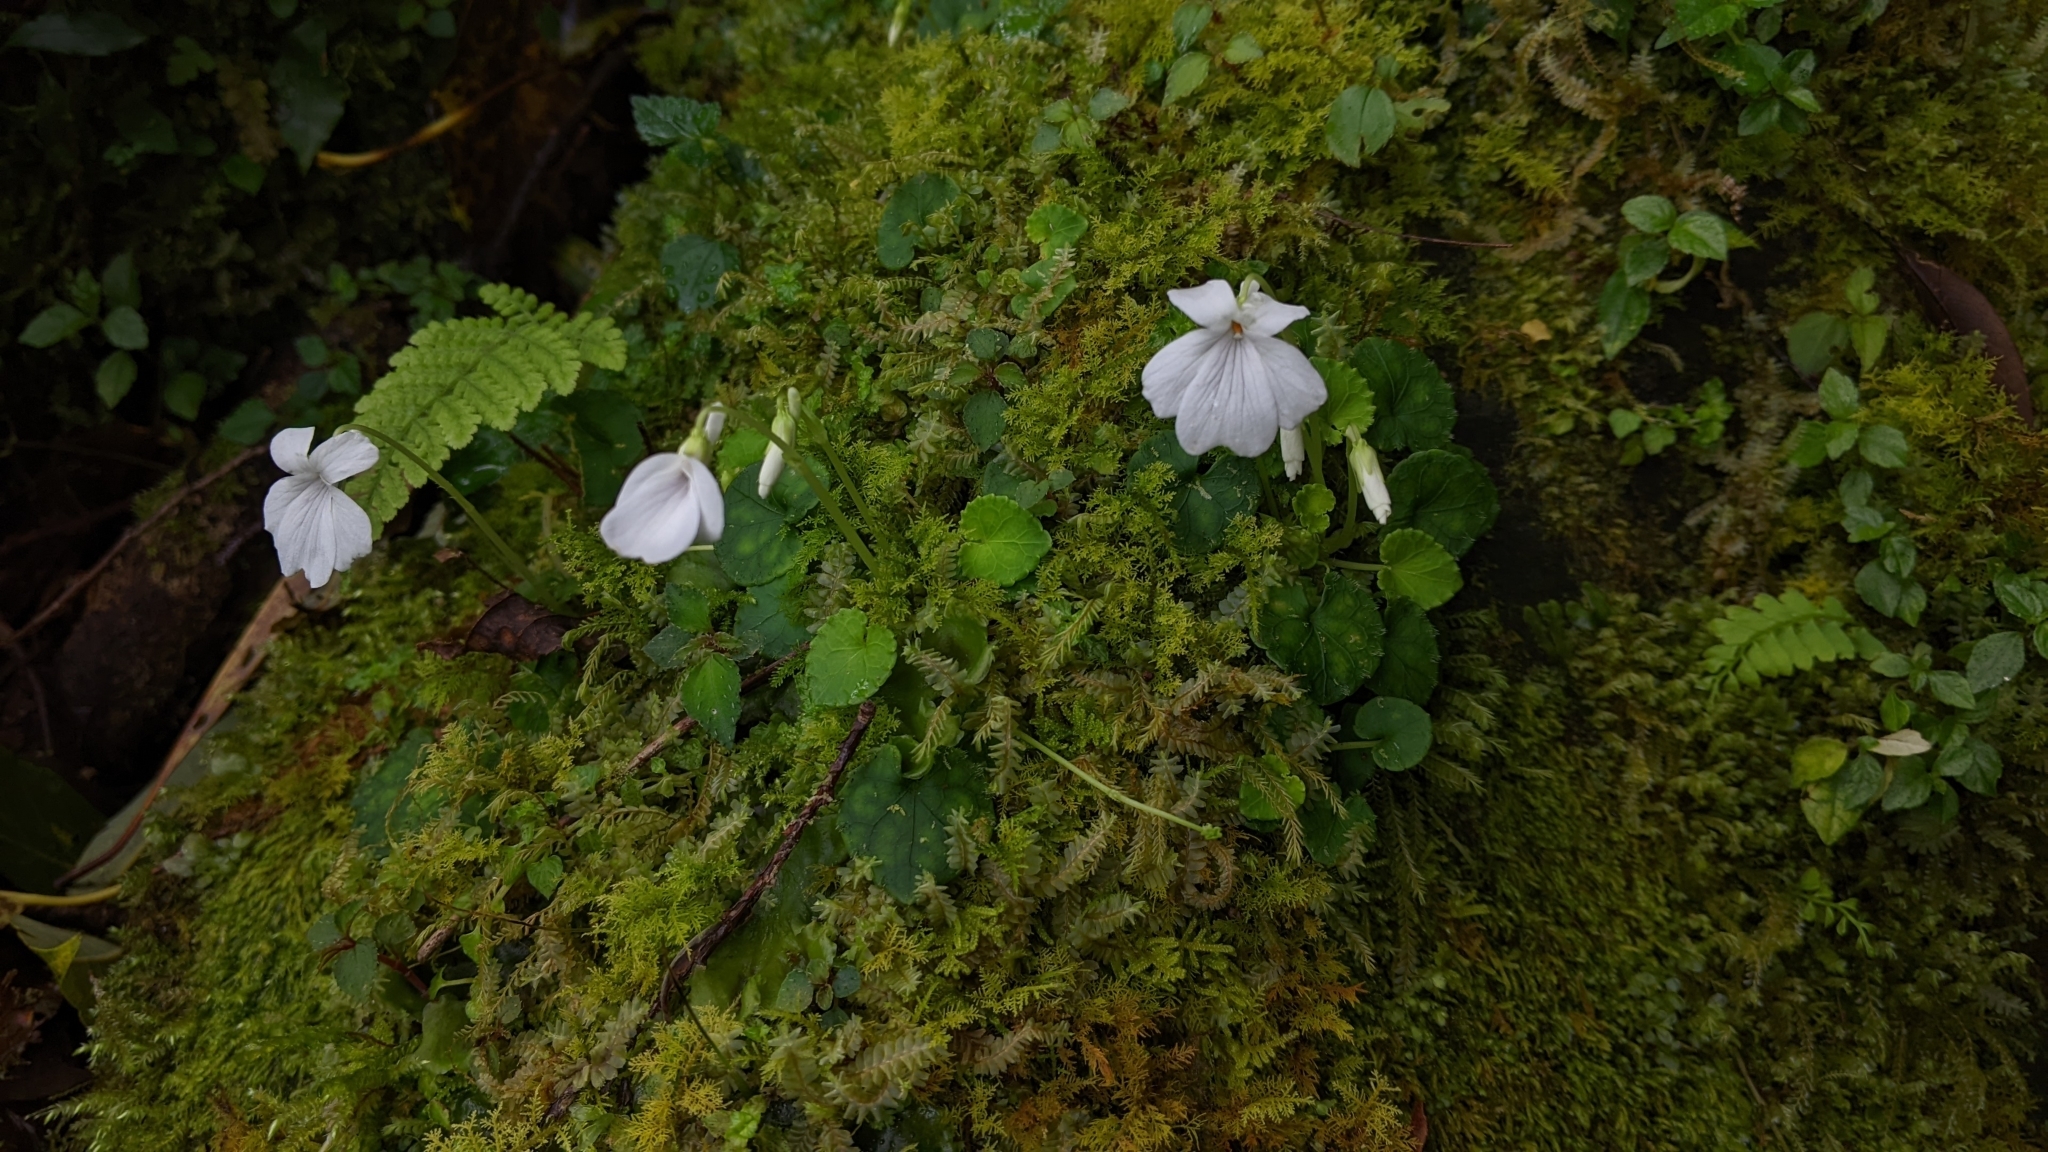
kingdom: Plantae
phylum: Tracheophyta
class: Magnoliopsida
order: Malpighiales
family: Violaceae
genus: Viola
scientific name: Viola formosana
